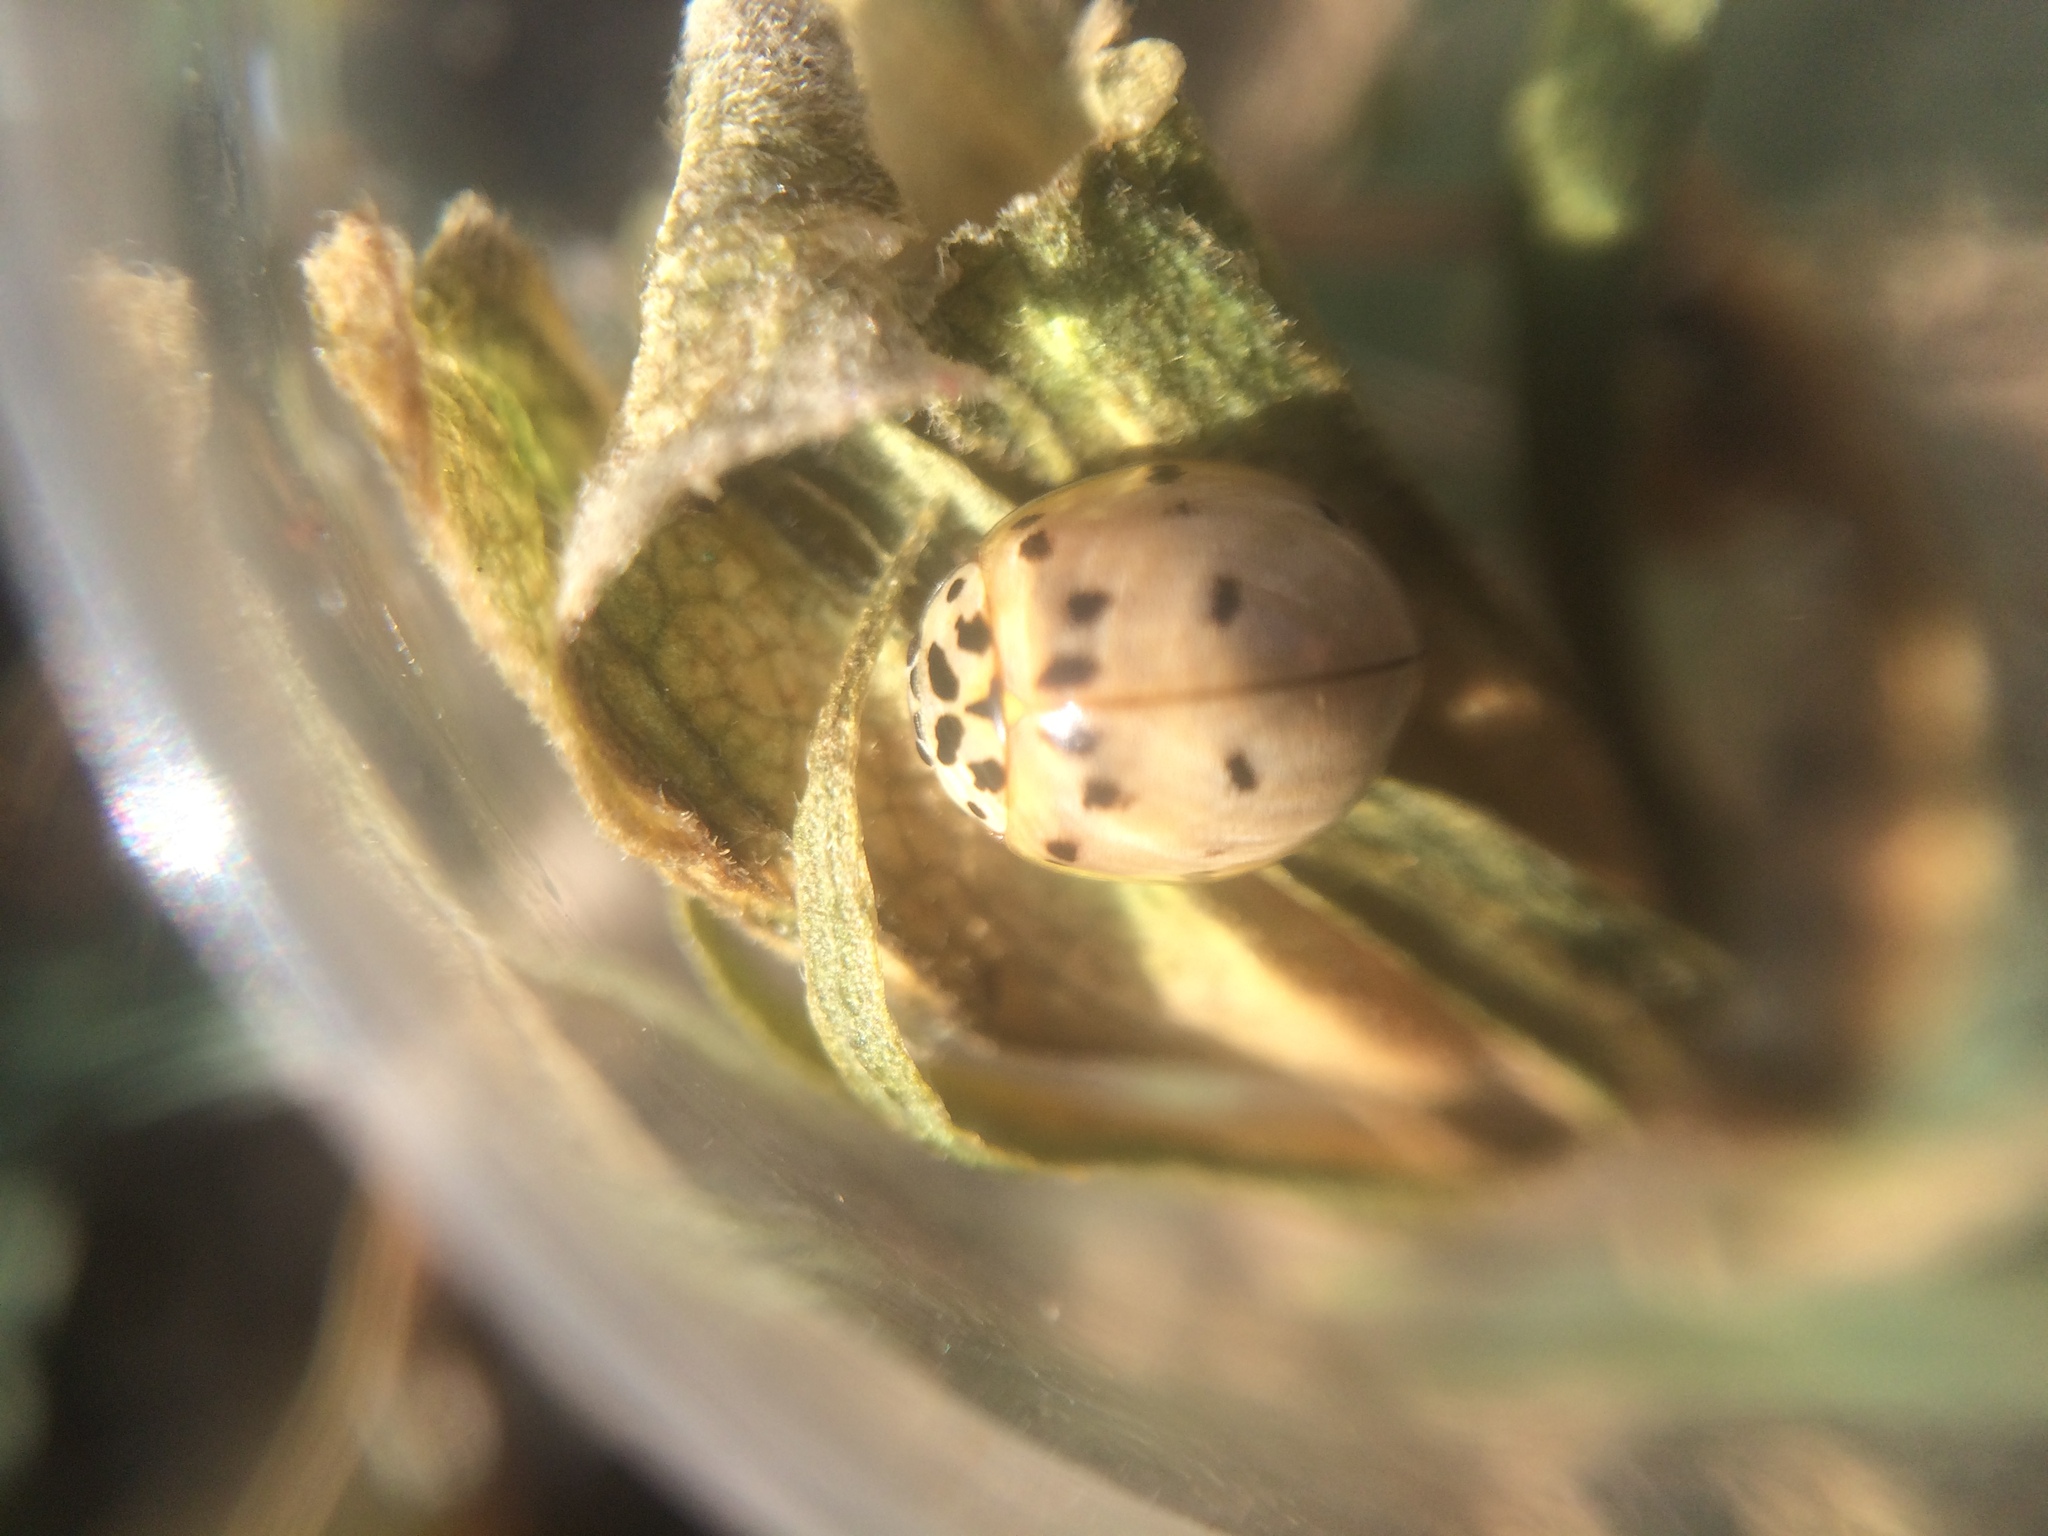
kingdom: Animalia
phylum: Arthropoda
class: Insecta
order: Coleoptera
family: Coccinellidae
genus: Olla
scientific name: Olla v-nigrum
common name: Ashy gray lady beetle
